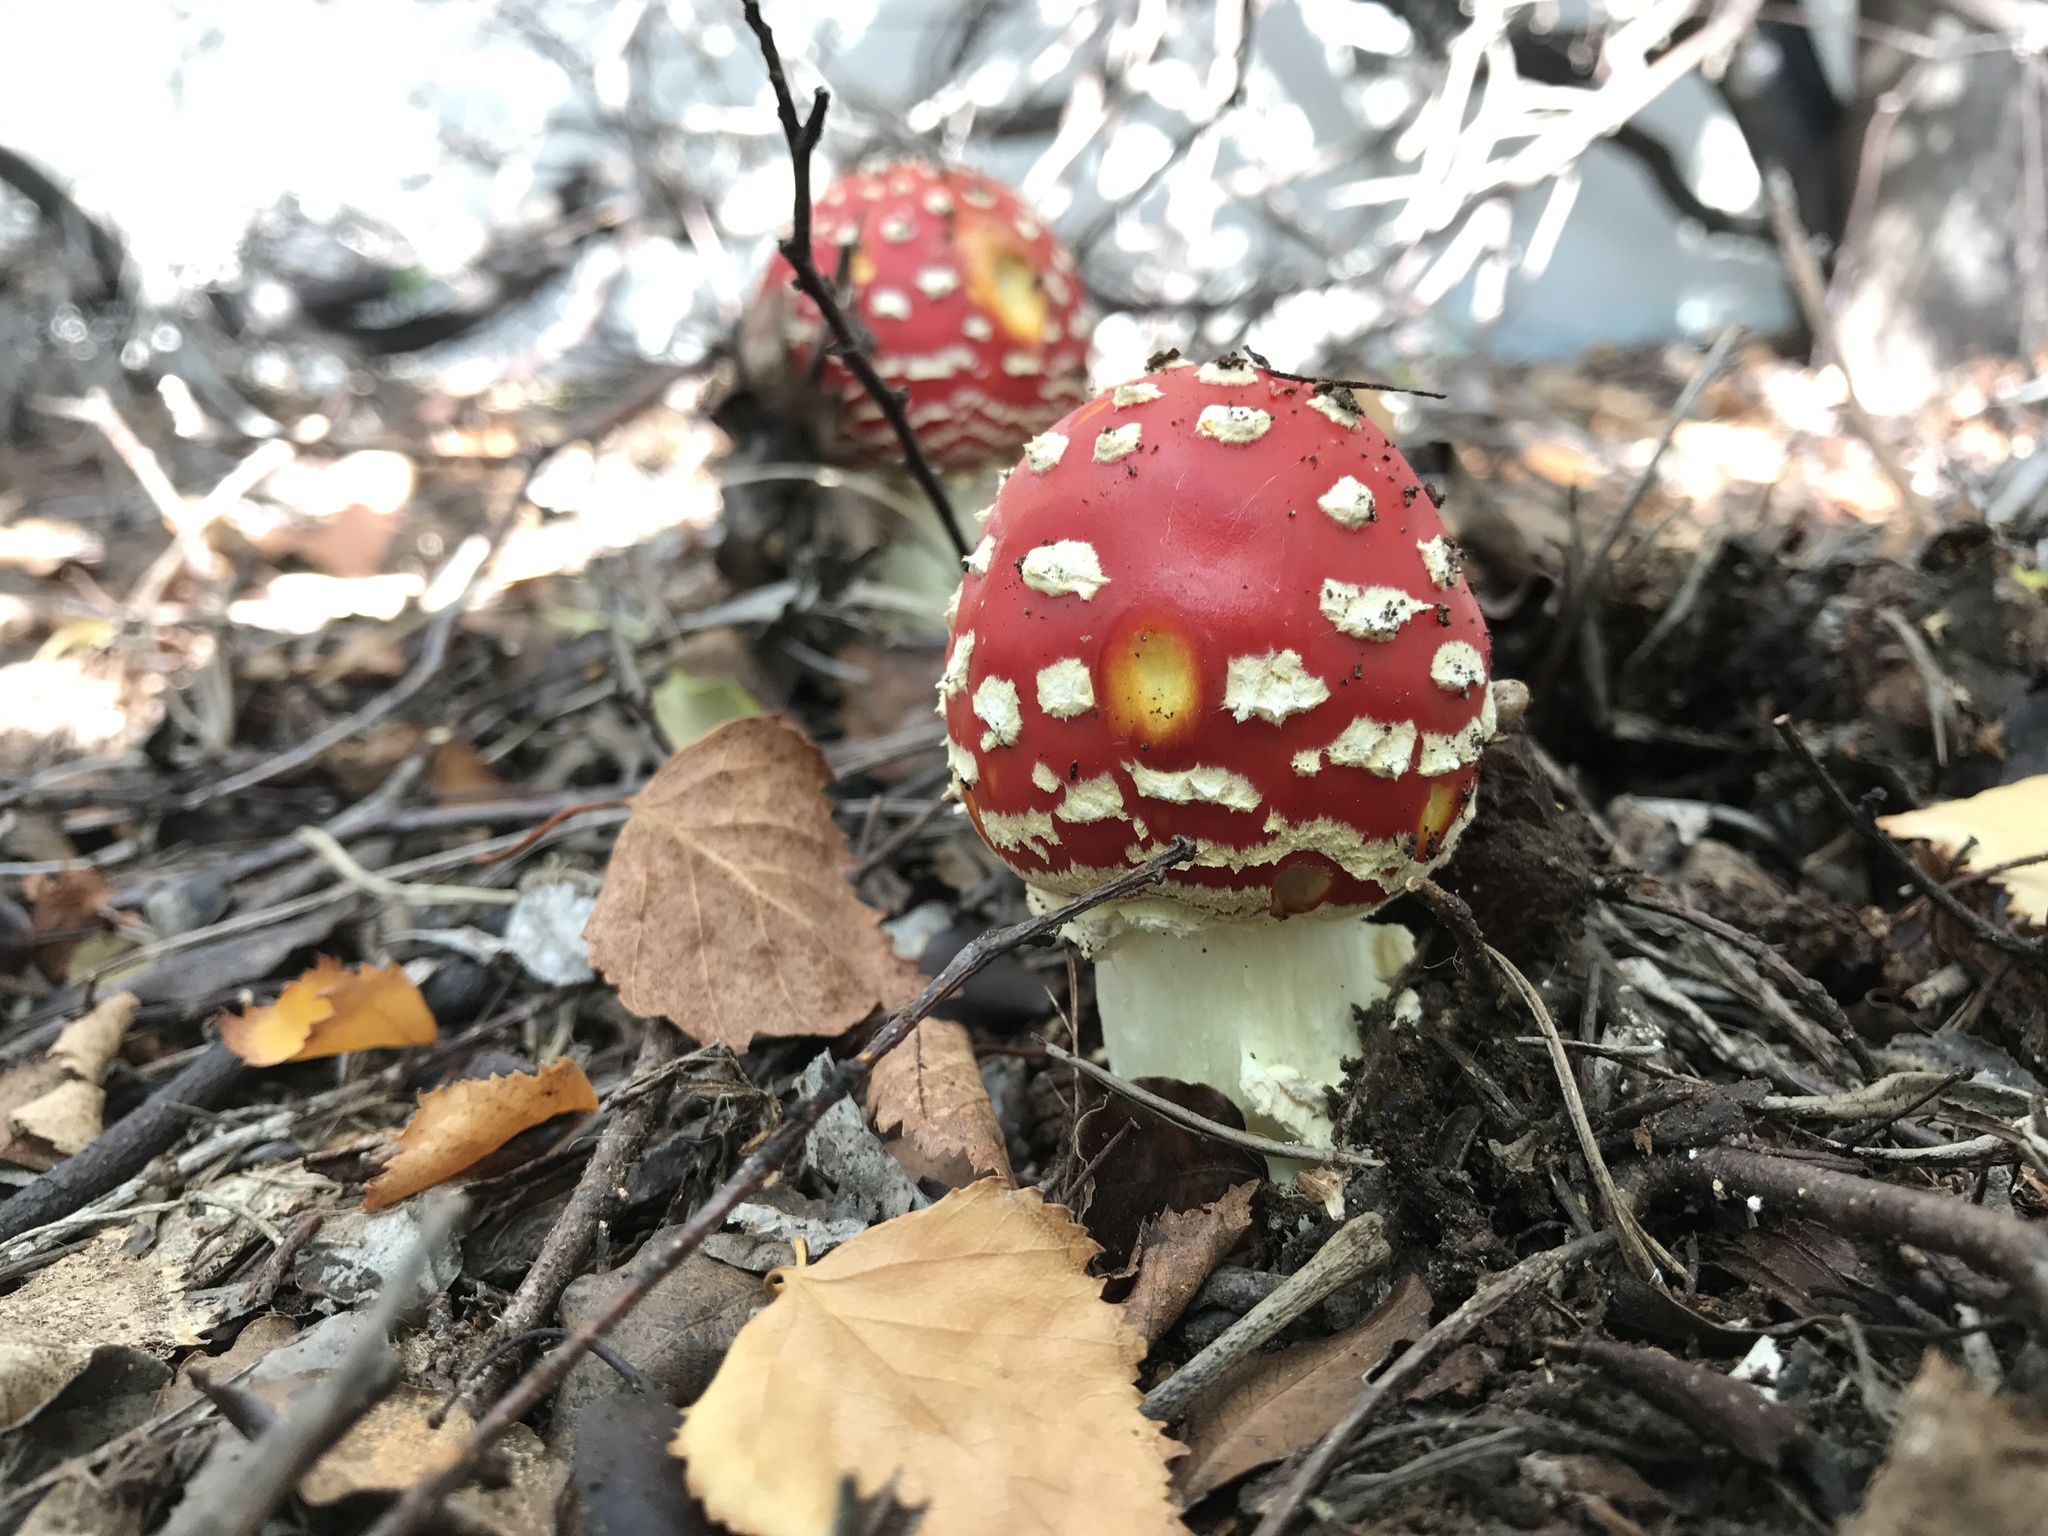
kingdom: Fungi
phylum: Basidiomycota
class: Agaricomycetes
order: Agaricales
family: Amanitaceae
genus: Amanita
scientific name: Amanita muscaria
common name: Fly agaric
